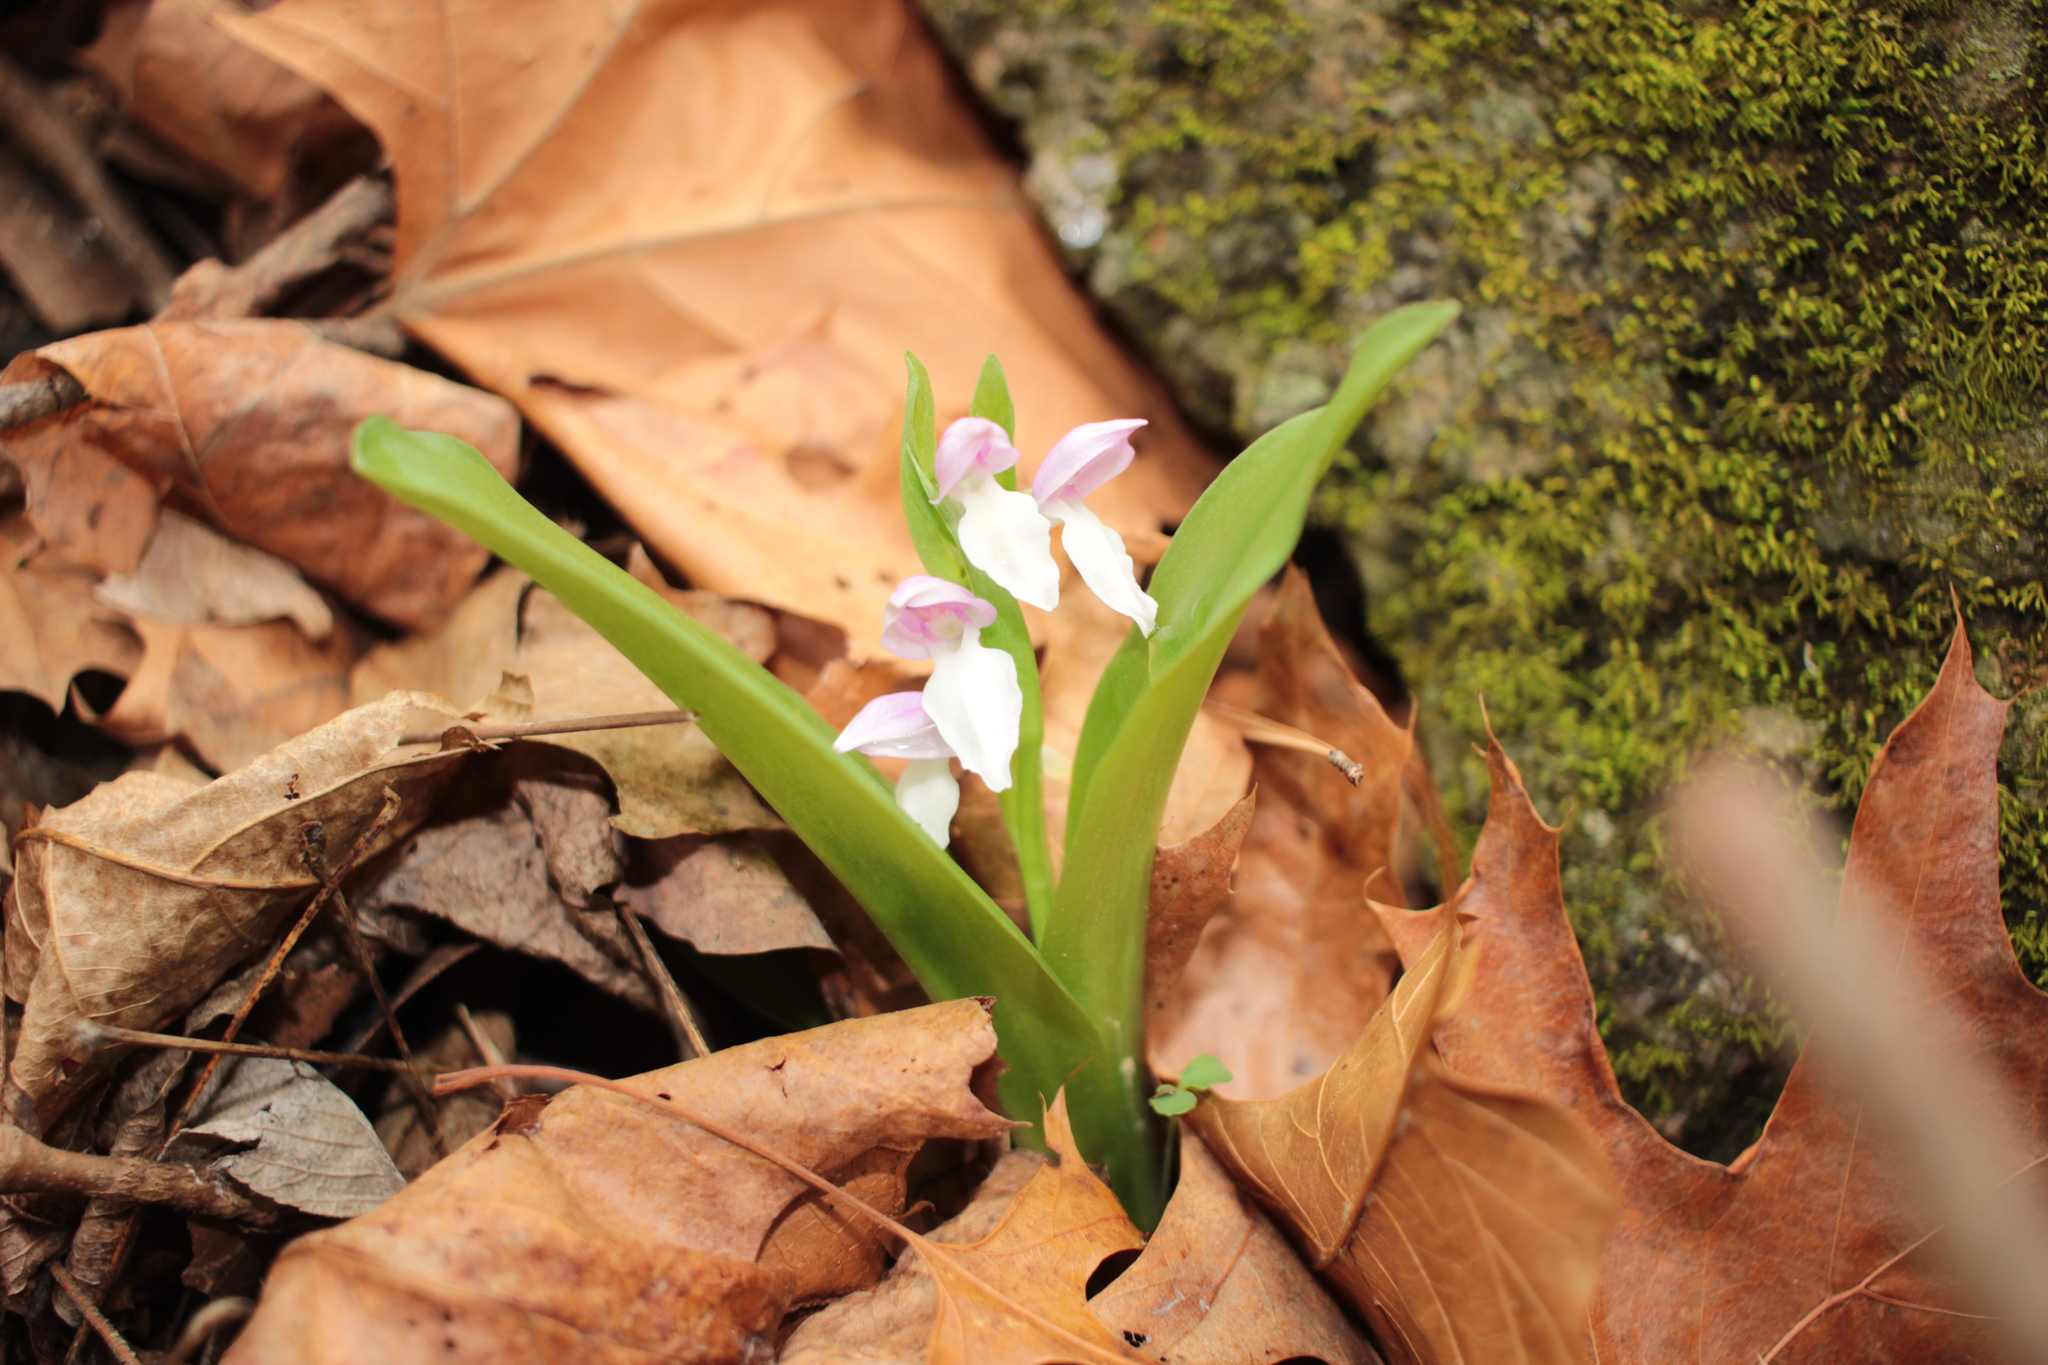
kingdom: Plantae
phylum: Tracheophyta
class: Liliopsida
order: Asparagales
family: Orchidaceae
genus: Galearis
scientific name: Galearis spectabilis
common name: Purple-hooded orchis
